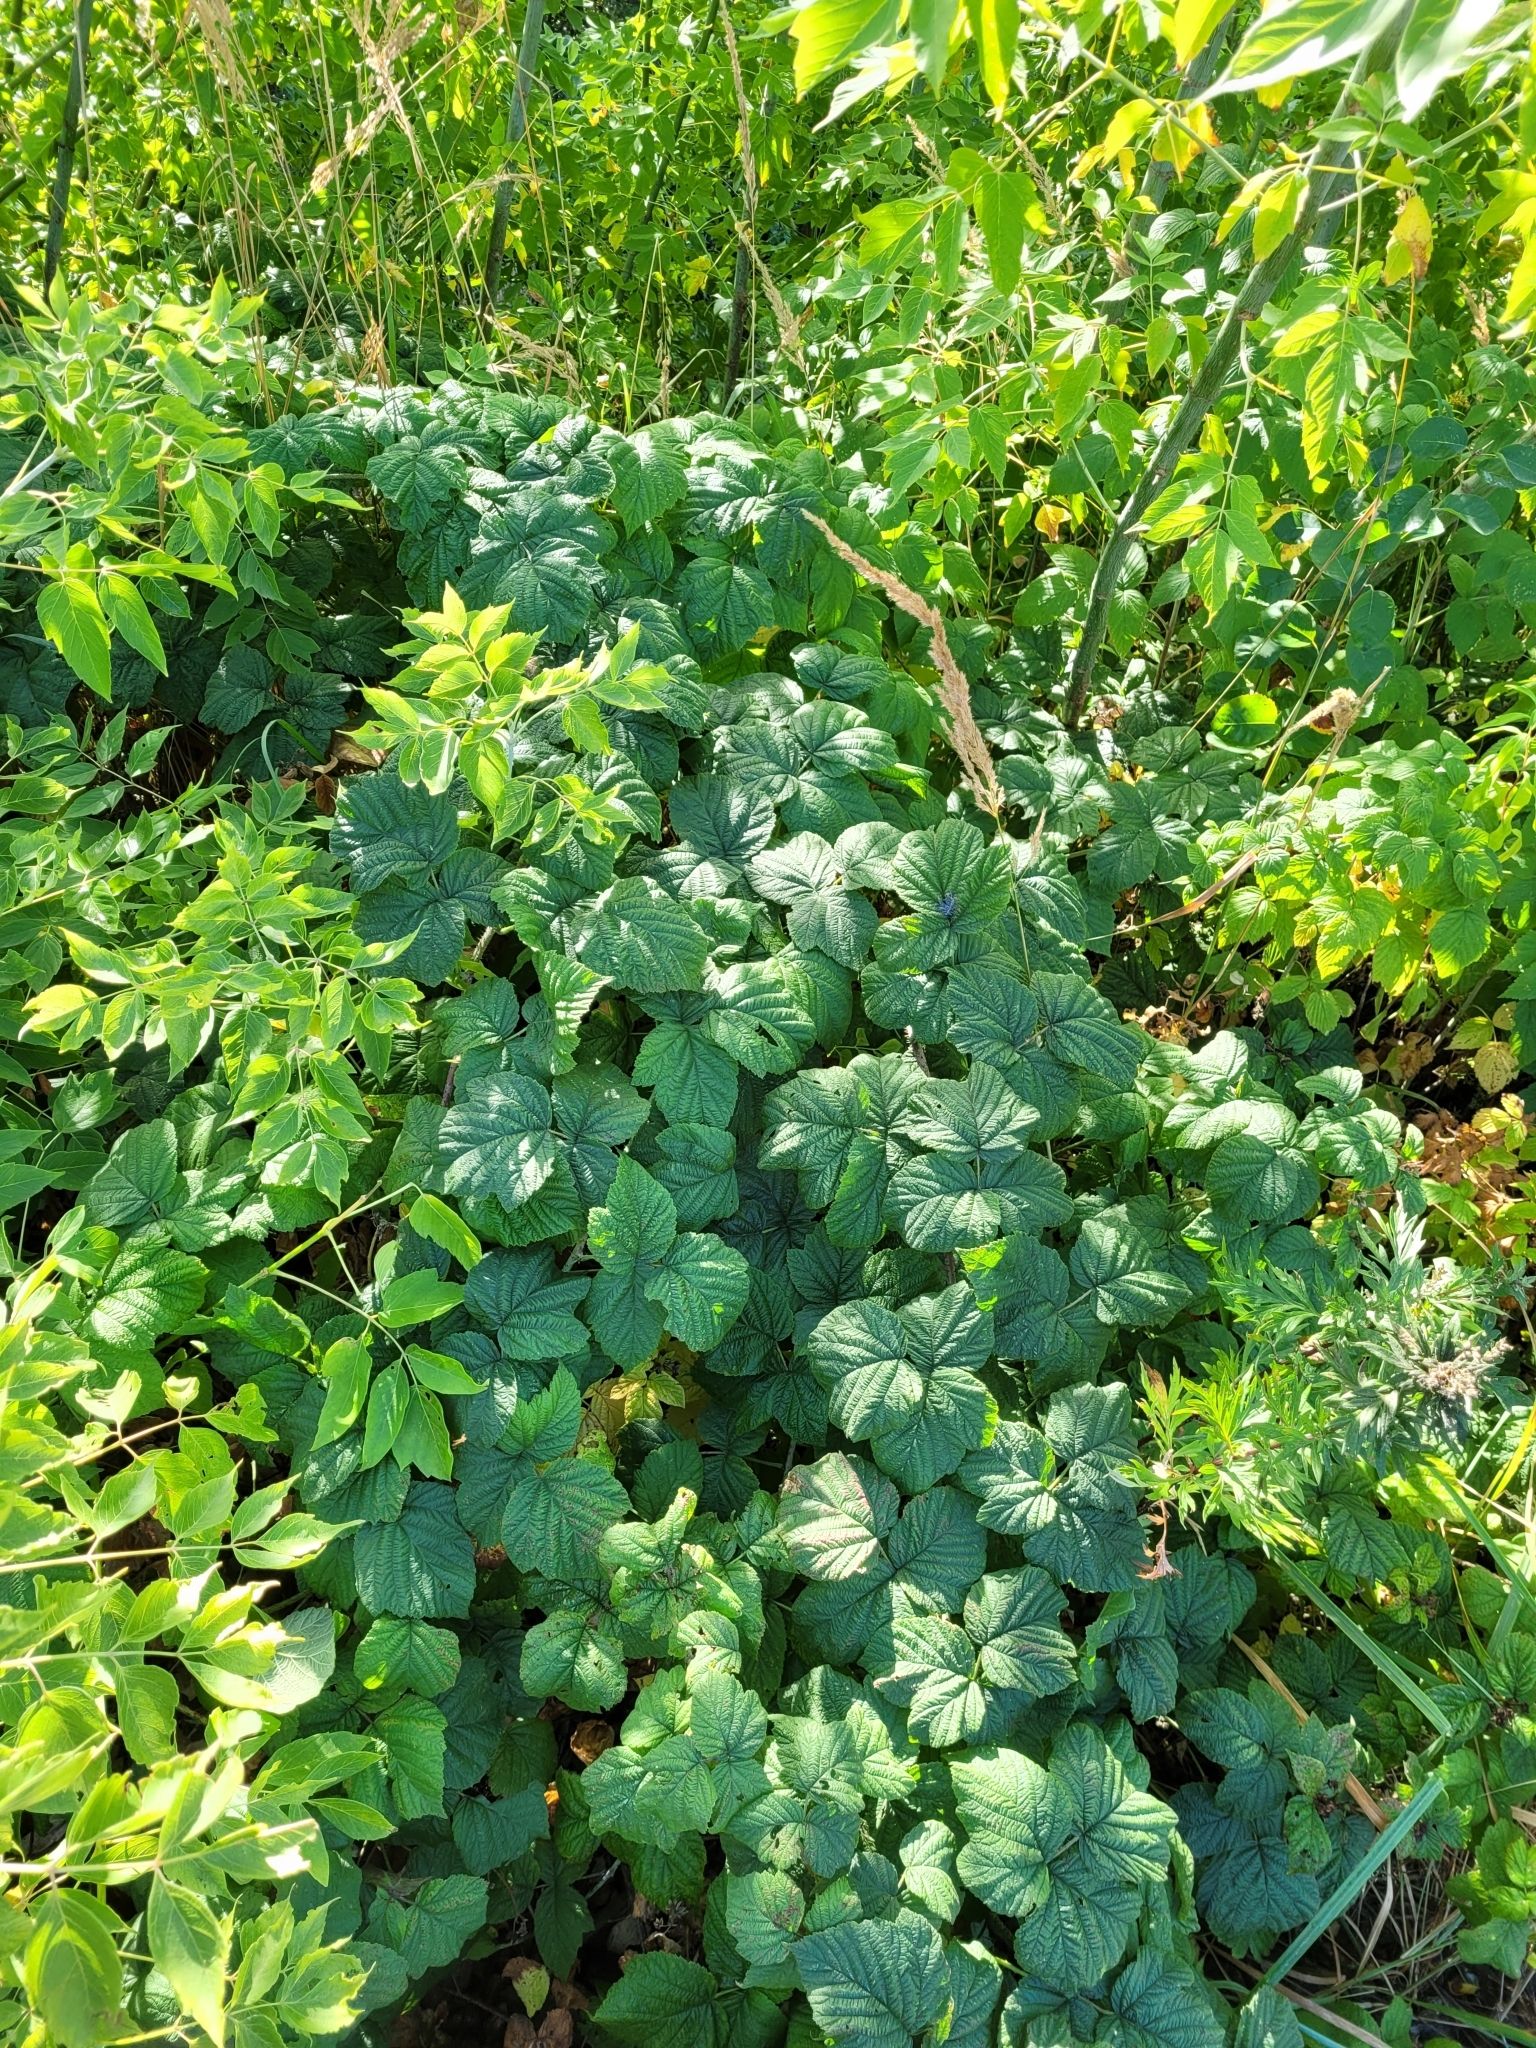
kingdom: Plantae
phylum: Tracheophyta
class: Magnoliopsida
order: Rosales
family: Rosaceae
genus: Rubus
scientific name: Rubus idaeoides
